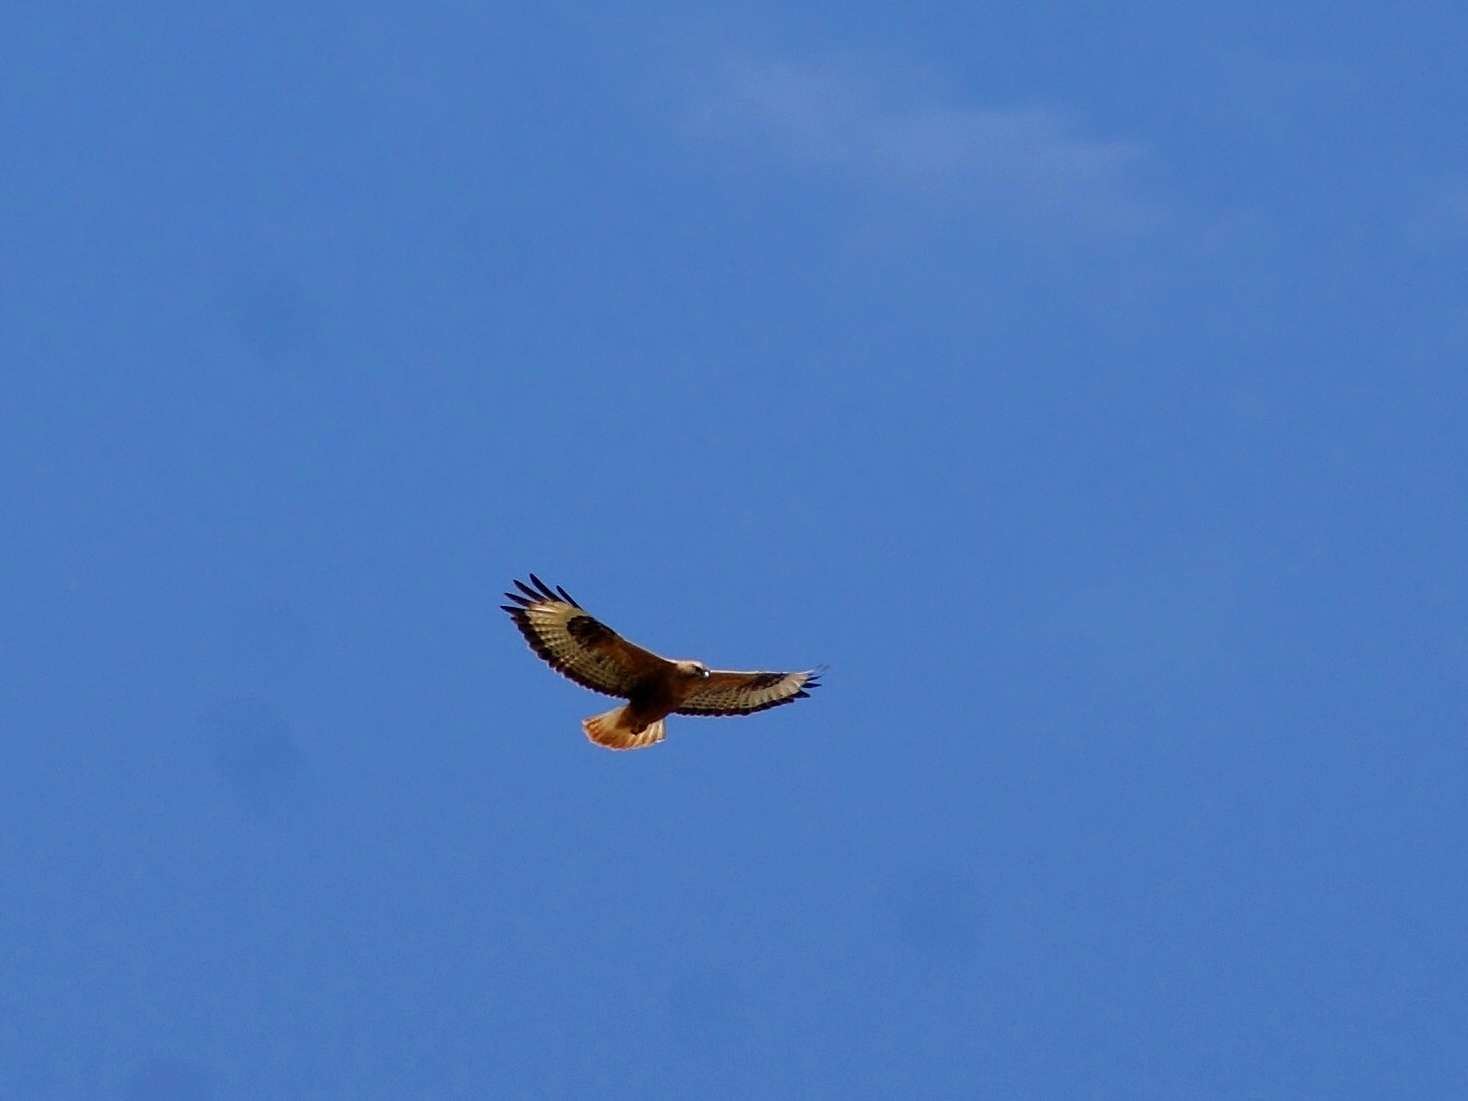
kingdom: Animalia
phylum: Chordata
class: Aves
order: Accipitriformes
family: Accipitridae
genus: Buteo
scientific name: Buteo rufinus
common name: Long-legged buzzard
